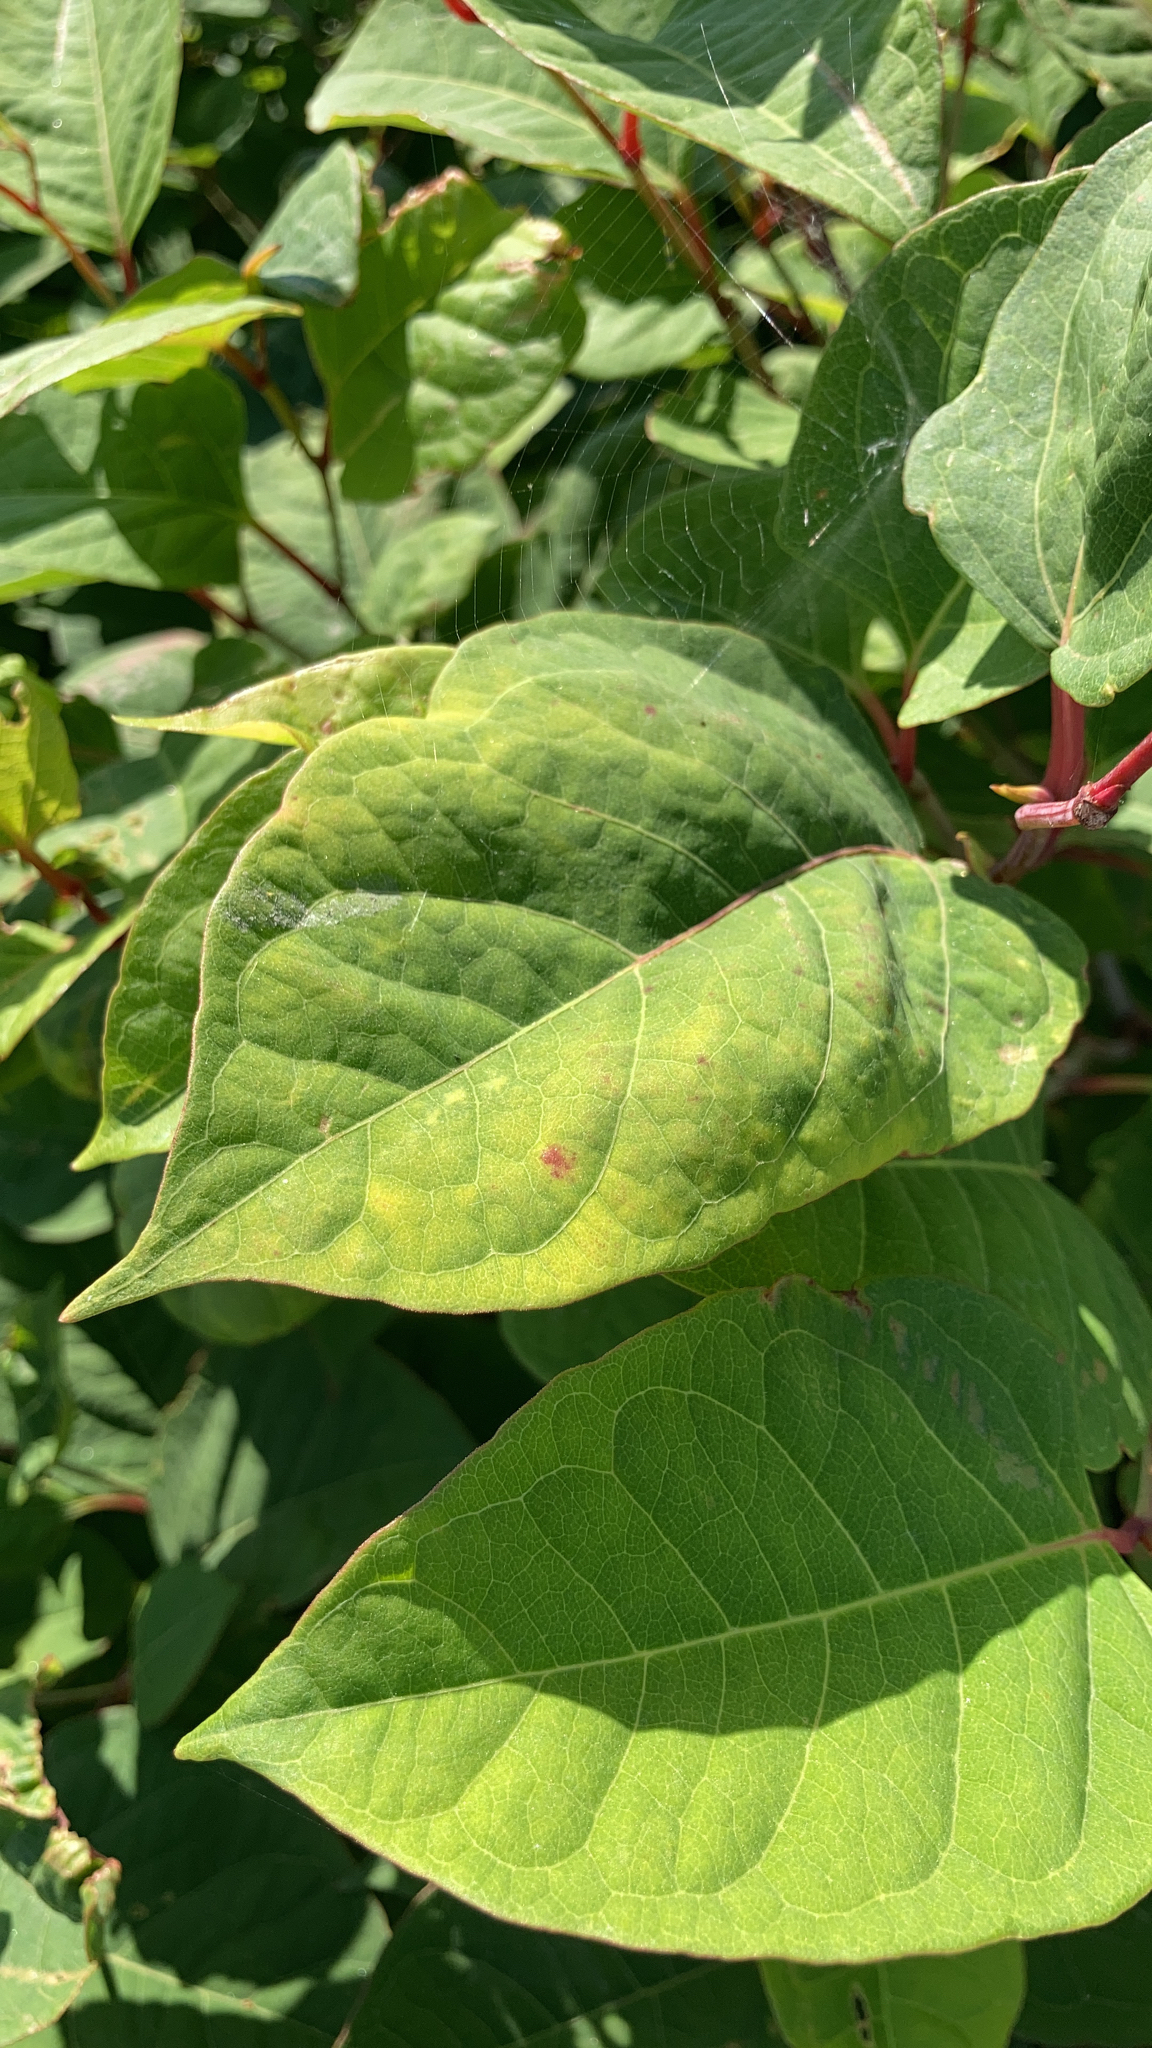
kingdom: Plantae
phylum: Tracheophyta
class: Magnoliopsida
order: Caryophyllales
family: Polygonaceae
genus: Reynoutria
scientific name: Reynoutria japonica
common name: Japanese knotweed
